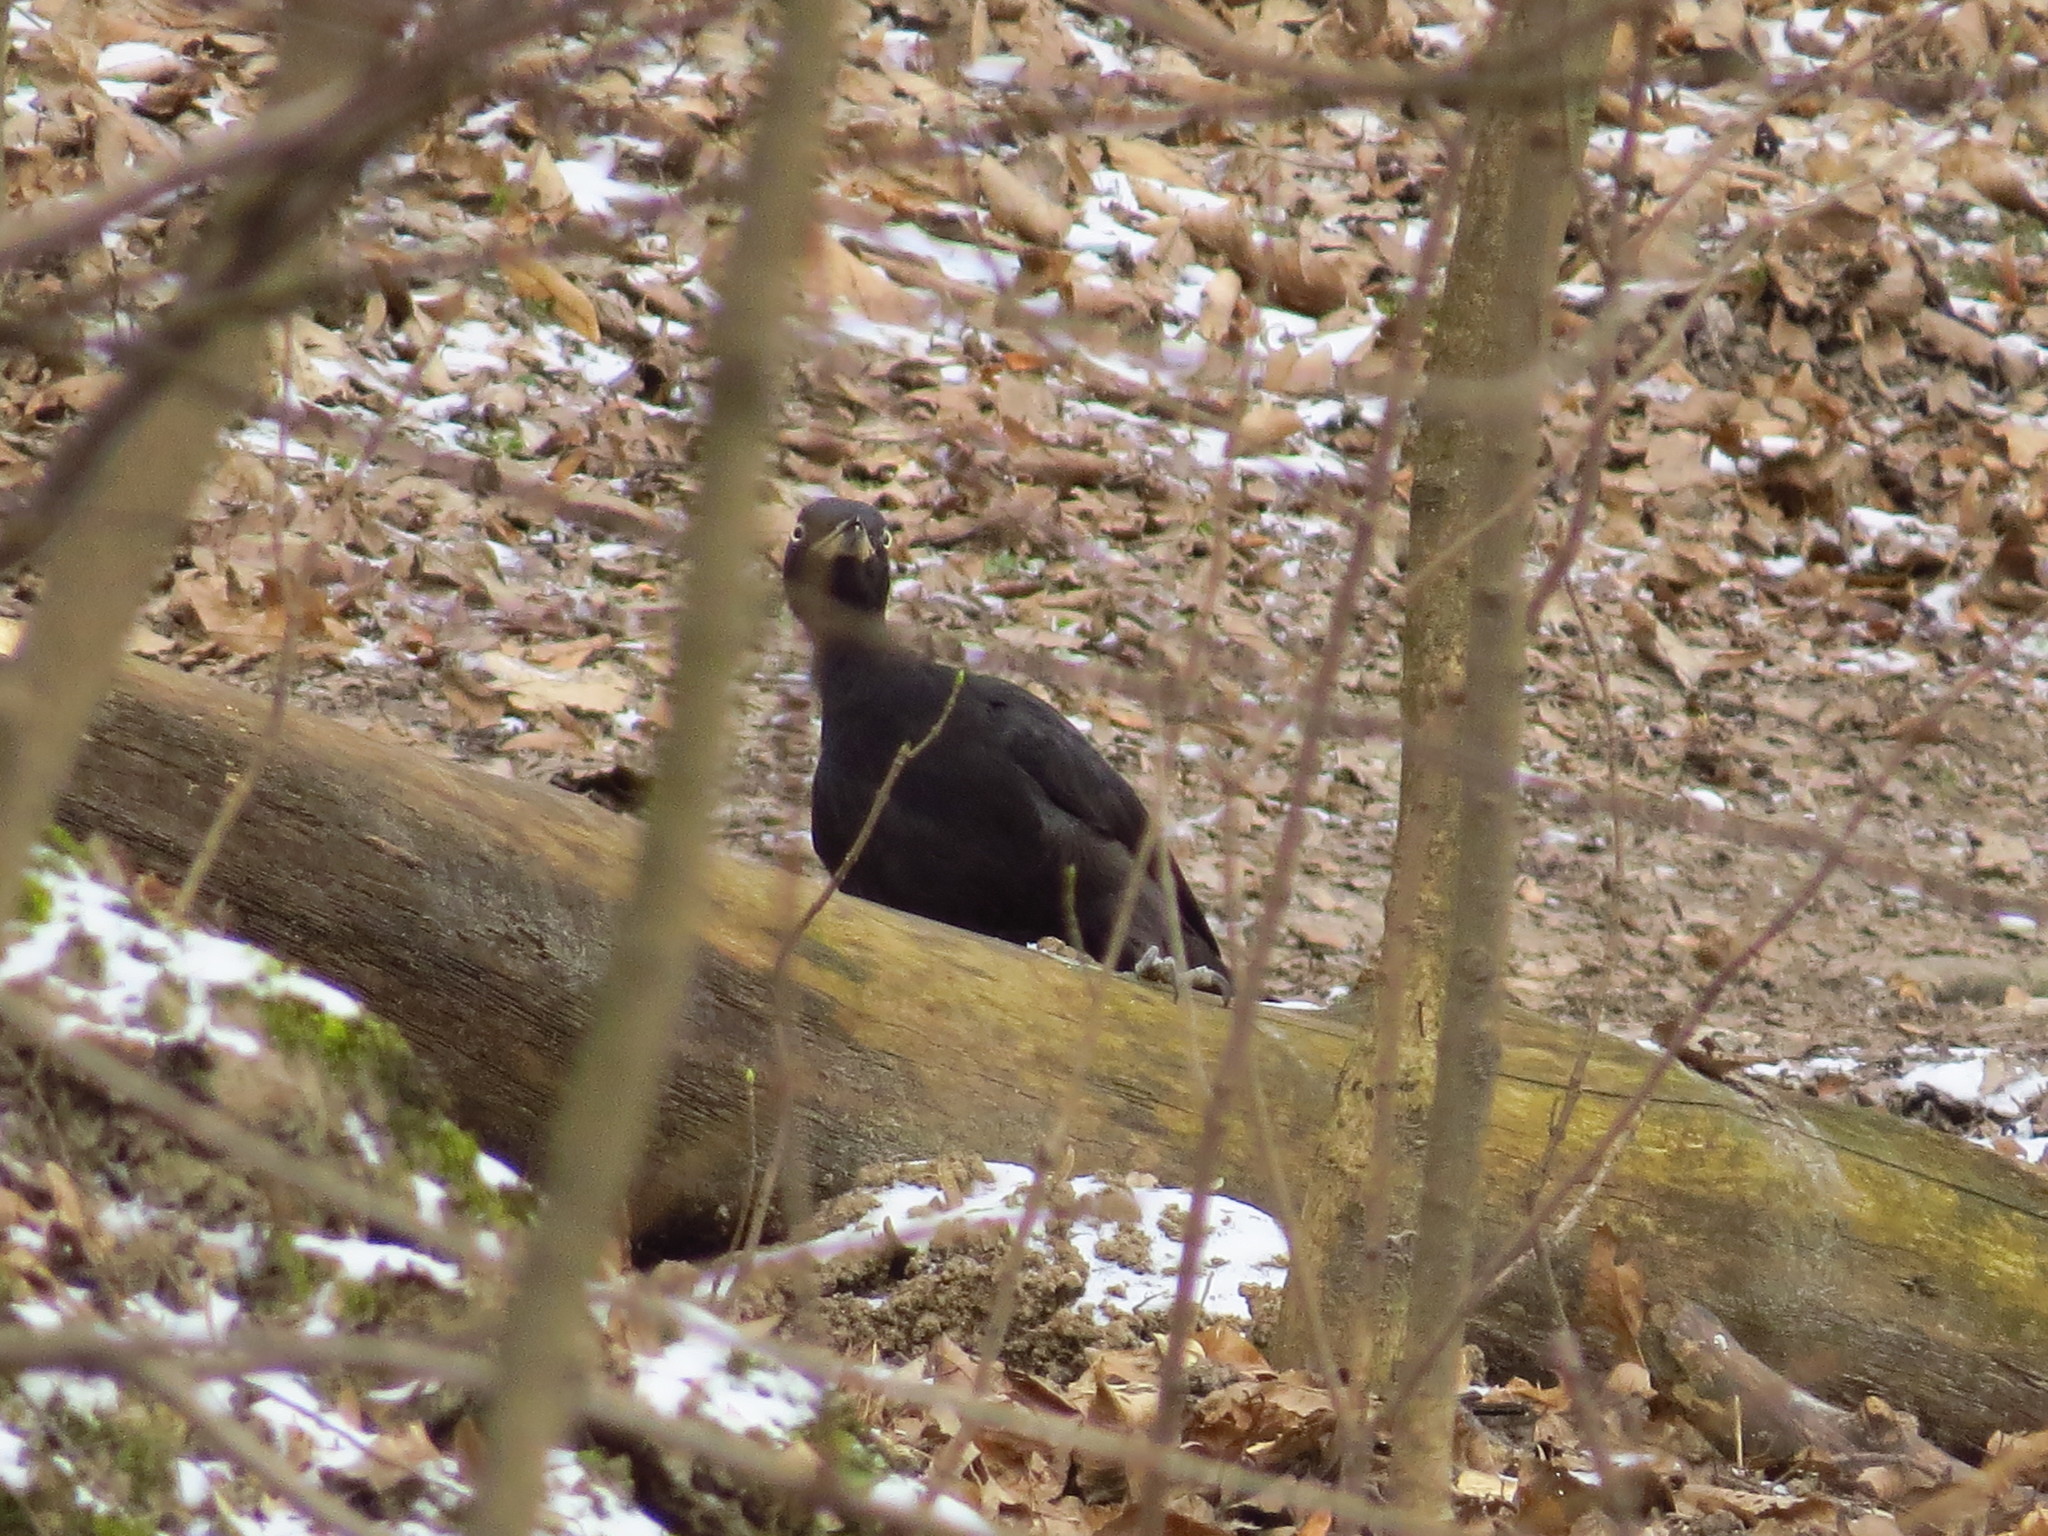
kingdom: Animalia
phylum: Chordata
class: Aves
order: Piciformes
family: Picidae
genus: Dryocopus
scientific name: Dryocopus martius
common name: Black woodpecker
